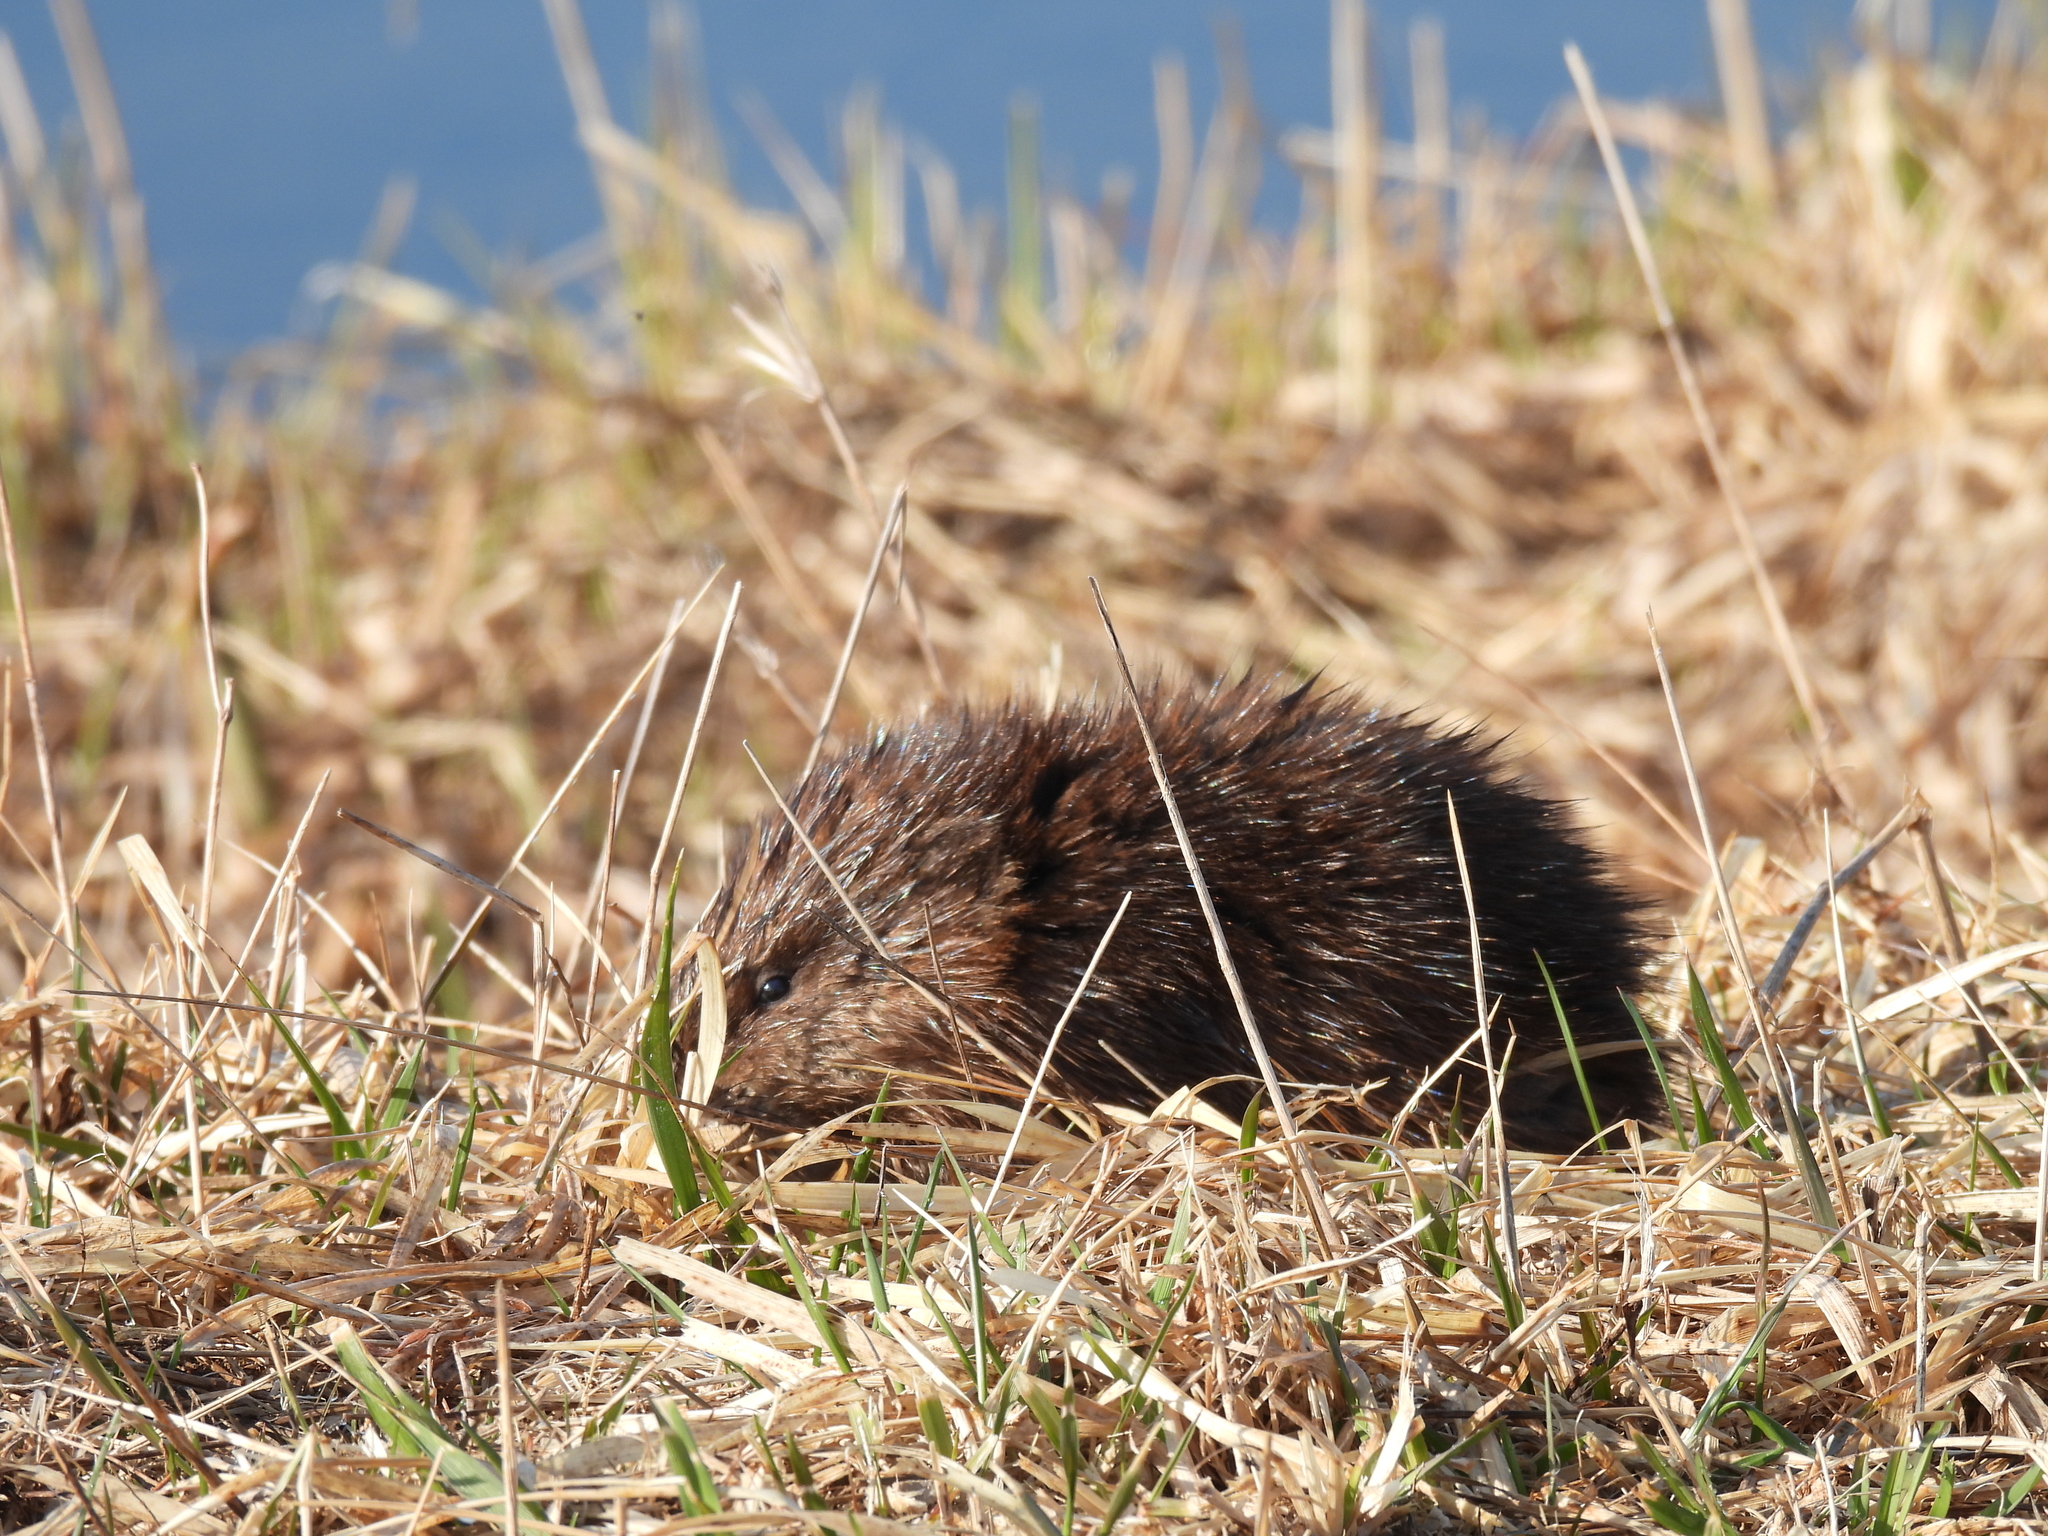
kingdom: Animalia
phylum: Chordata
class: Mammalia
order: Rodentia
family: Cricetidae
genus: Ondatra
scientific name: Ondatra zibethicus
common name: Muskrat
